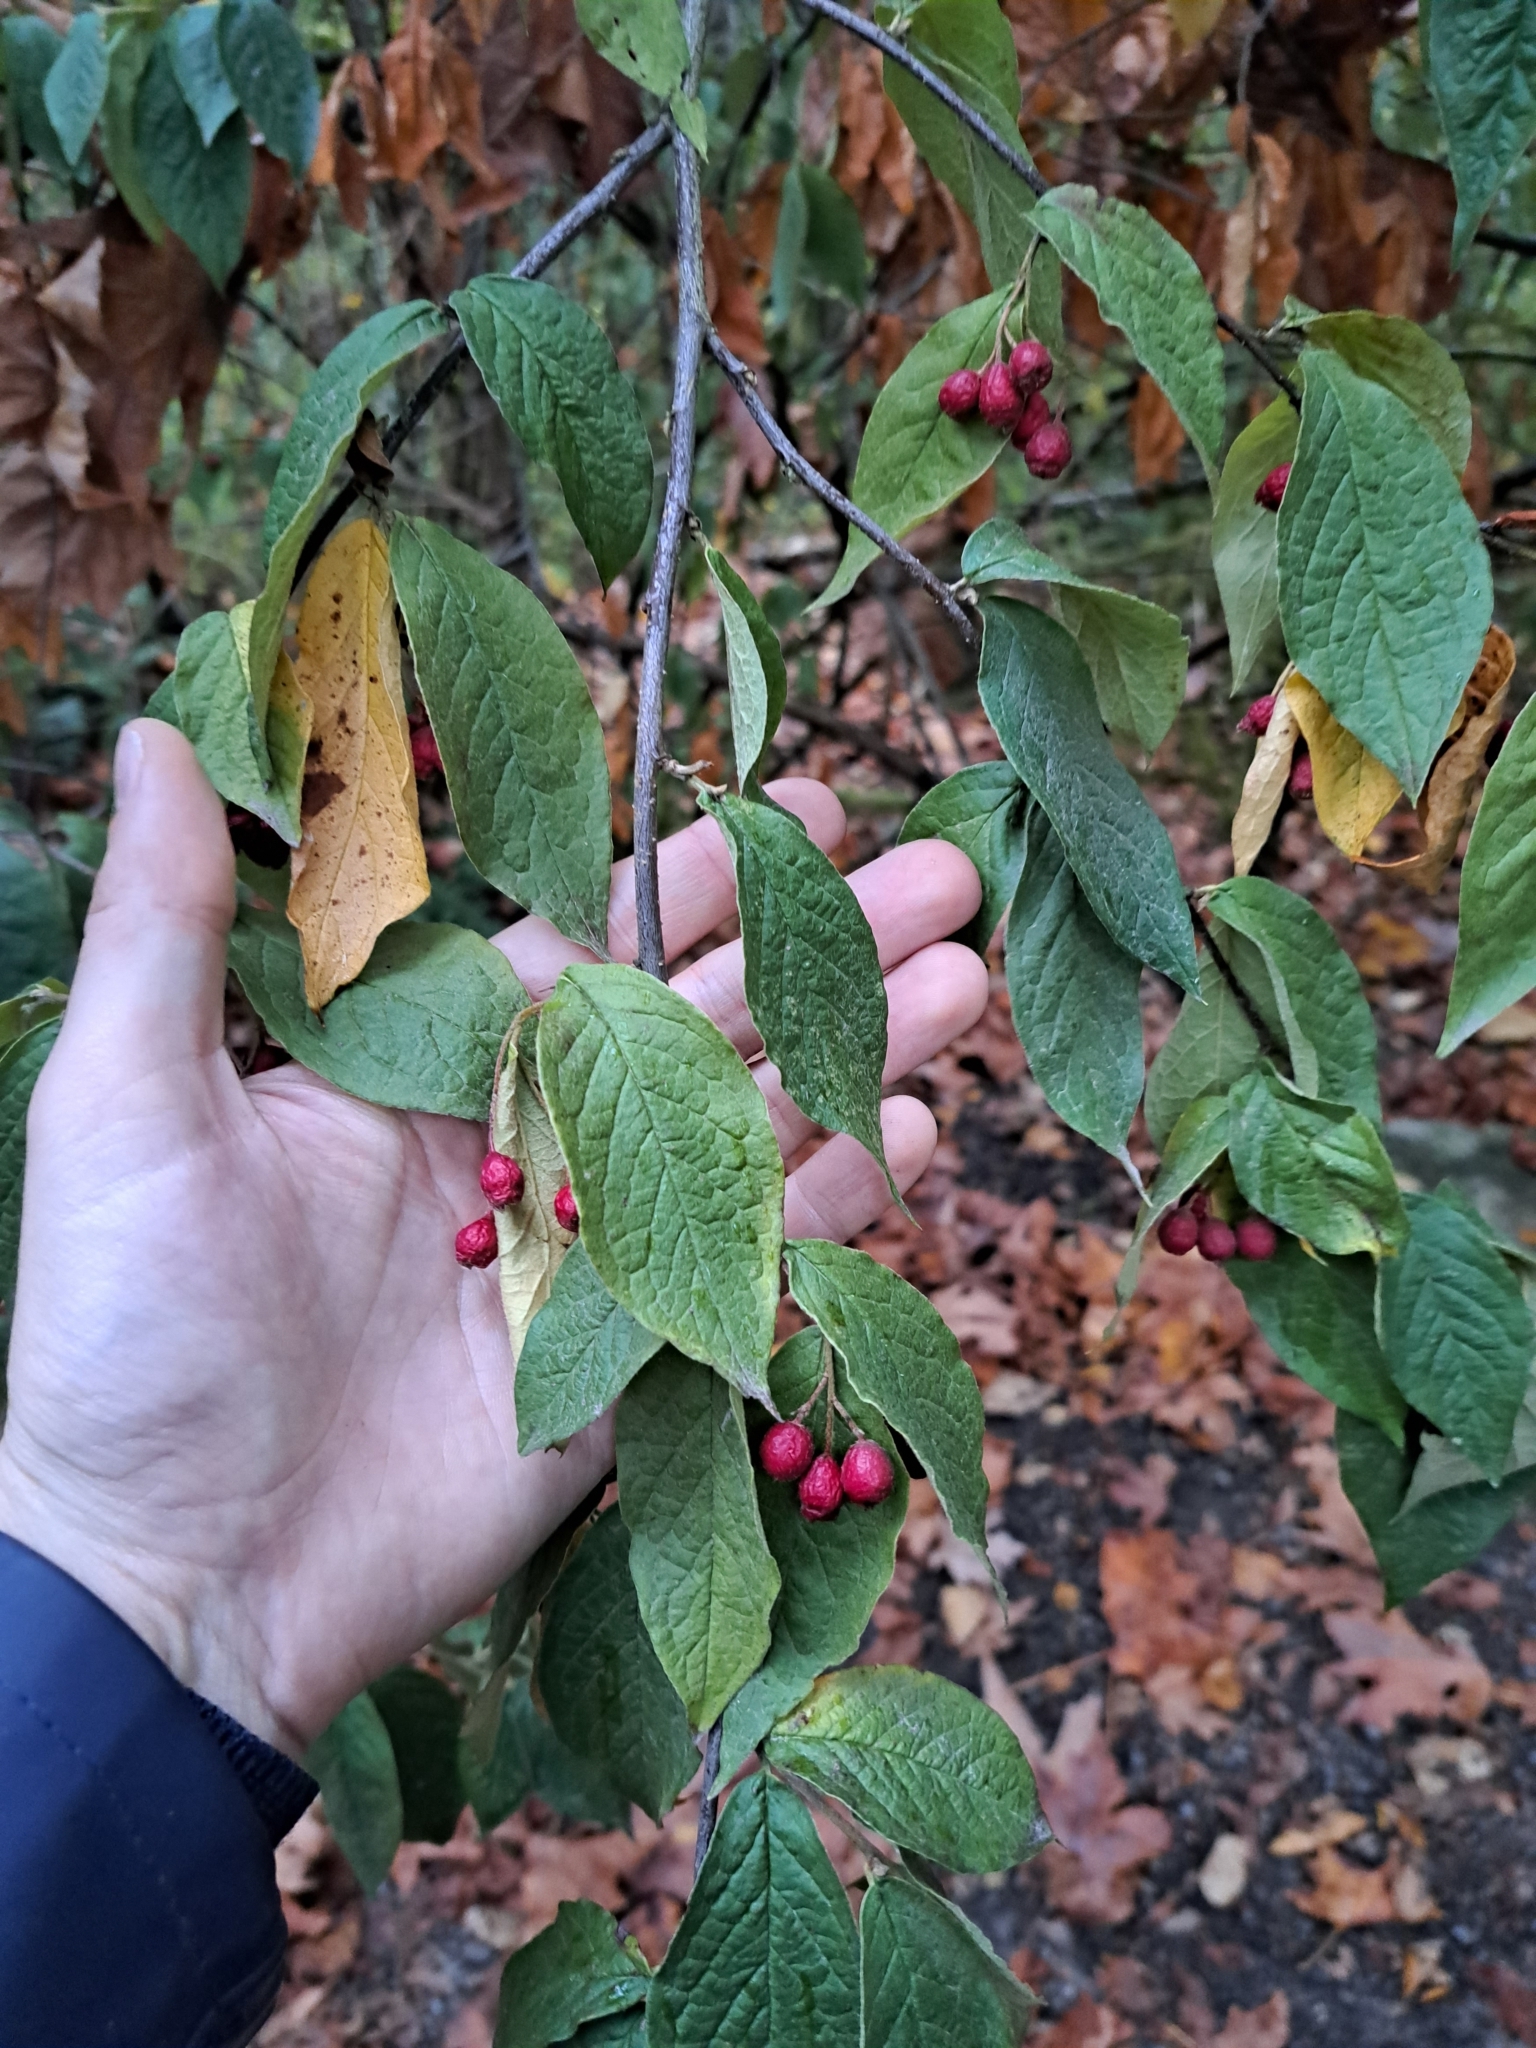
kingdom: Plantae
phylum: Tracheophyta
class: Magnoliopsida
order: Rosales
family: Rosaceae
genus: Cotoneaster
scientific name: Cotoneaster bullatus
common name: Hollyberry cotoneaster
